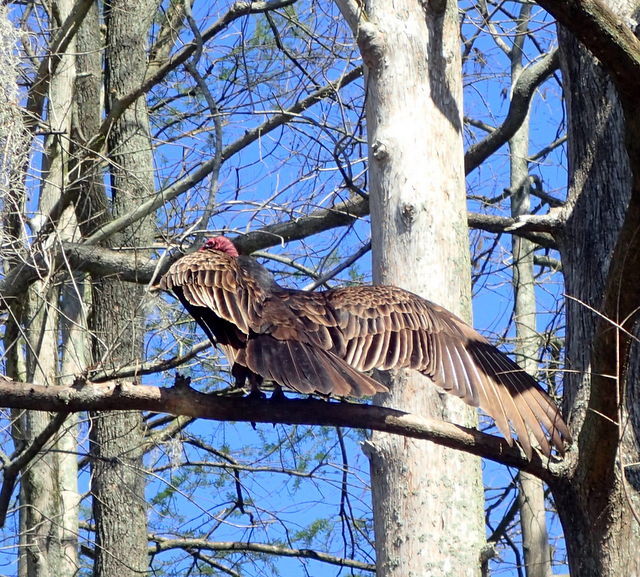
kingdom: Animalia
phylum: Chordata
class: Aves
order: Accipitriformes
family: Cathartidae
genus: Cathartes
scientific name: Cathartes aura
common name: Turkey vulture
